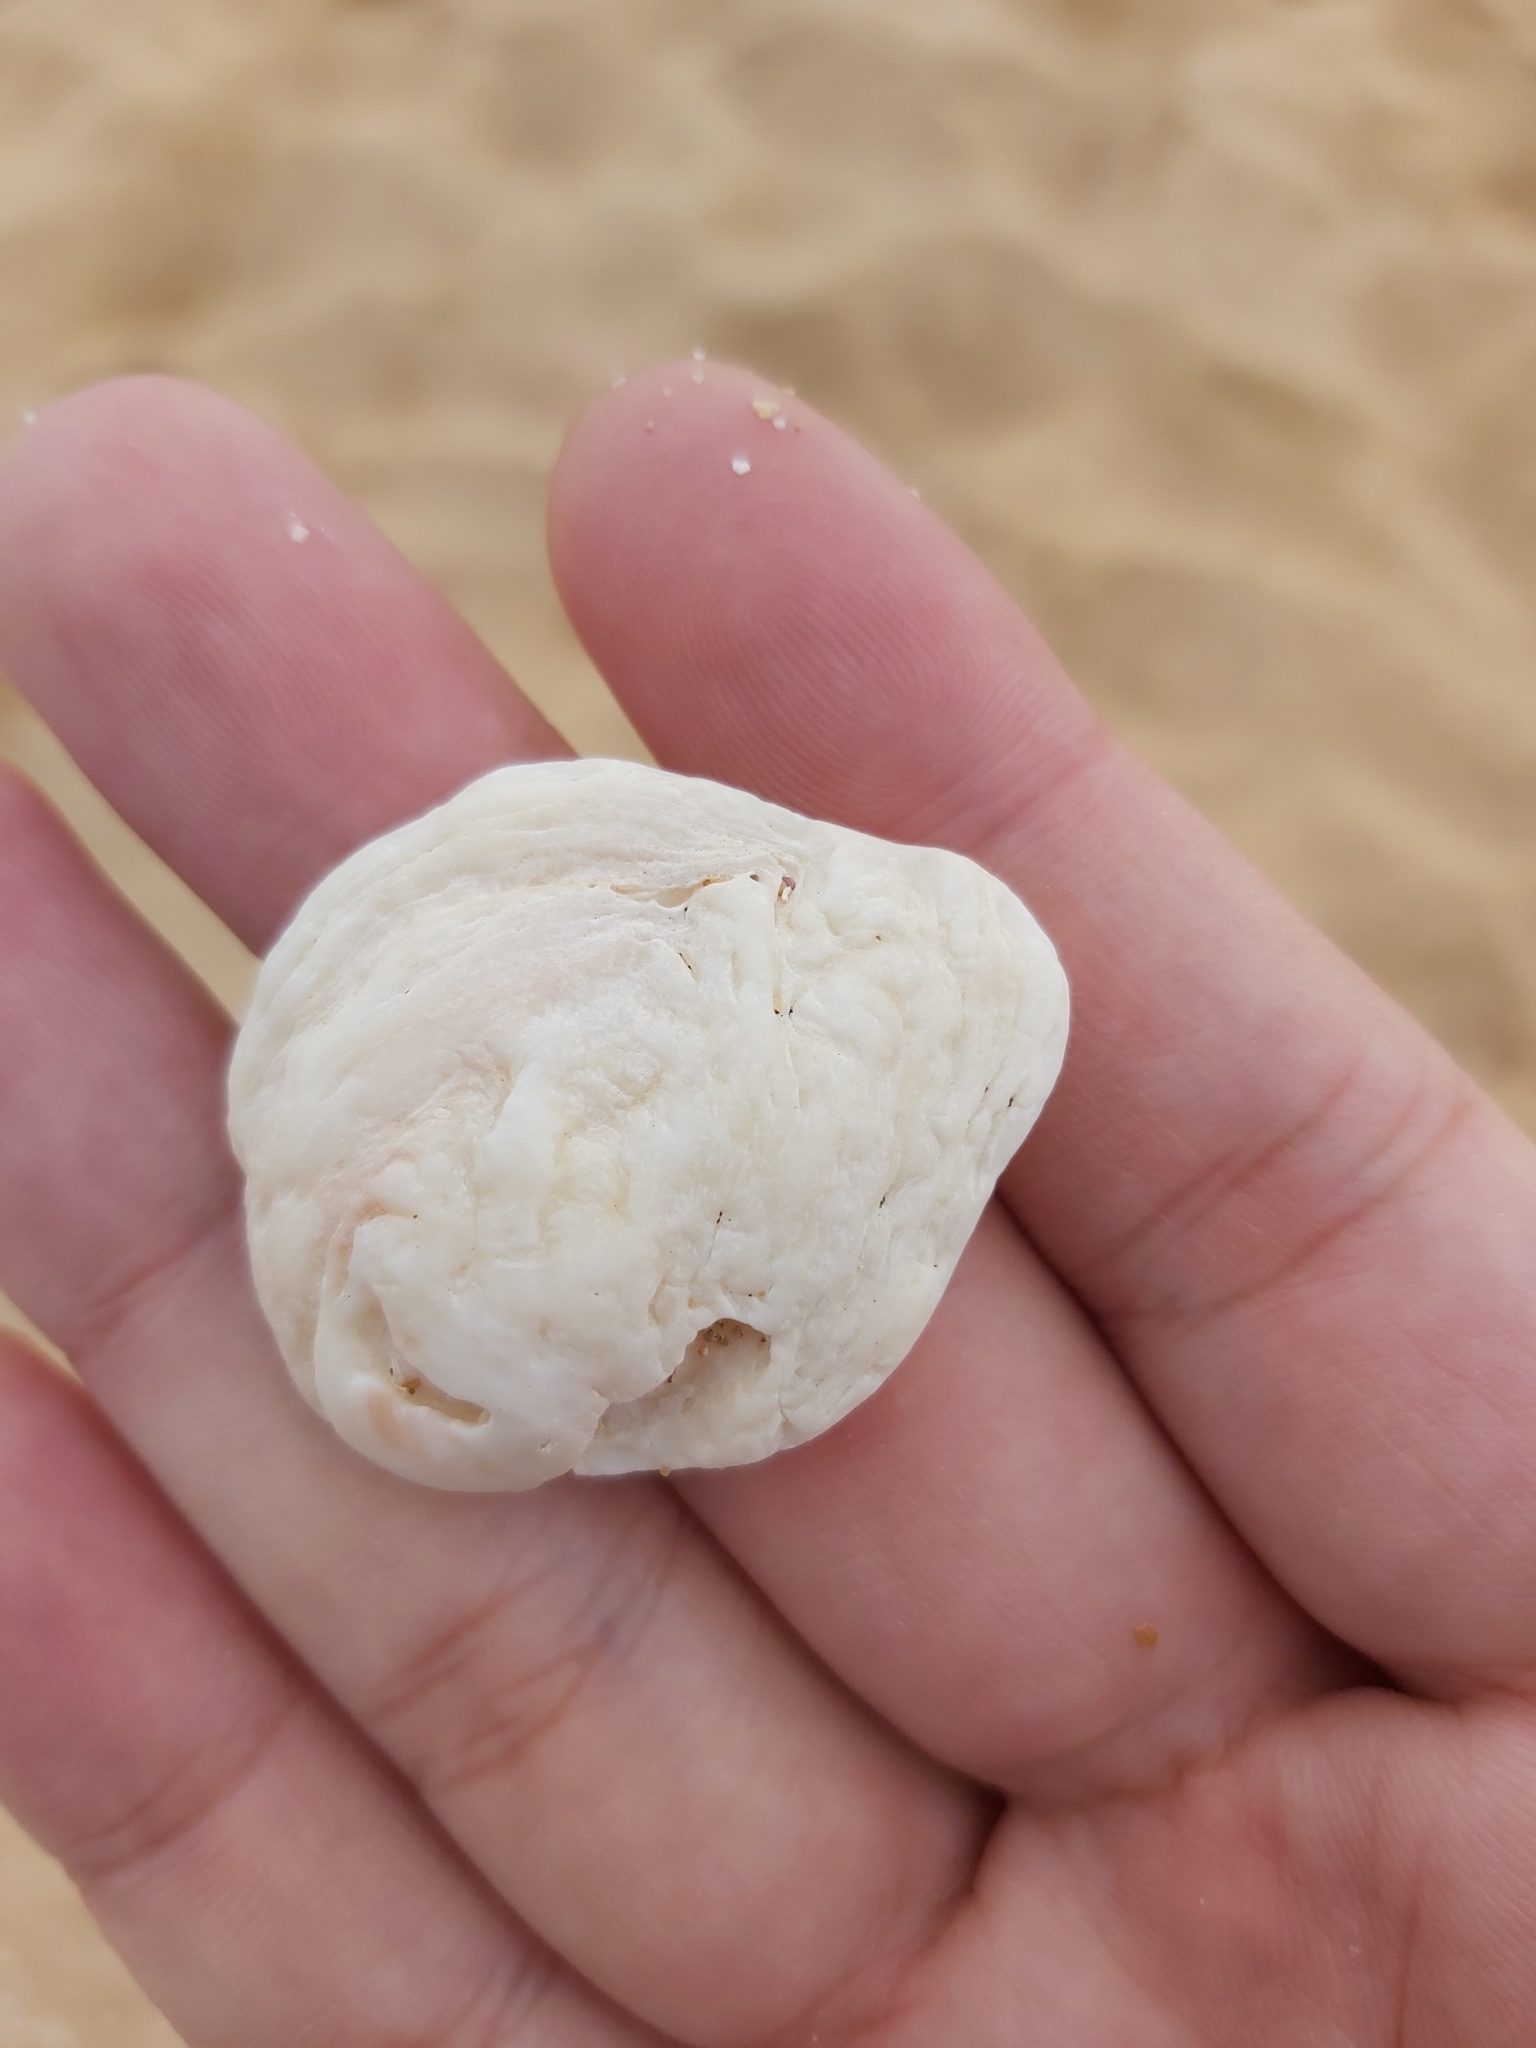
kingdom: Animalia
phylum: Mollusca
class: Bivalvia
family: Cleidothaeridae
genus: Cleidothaerus
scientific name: Cleidothaerus albidus
